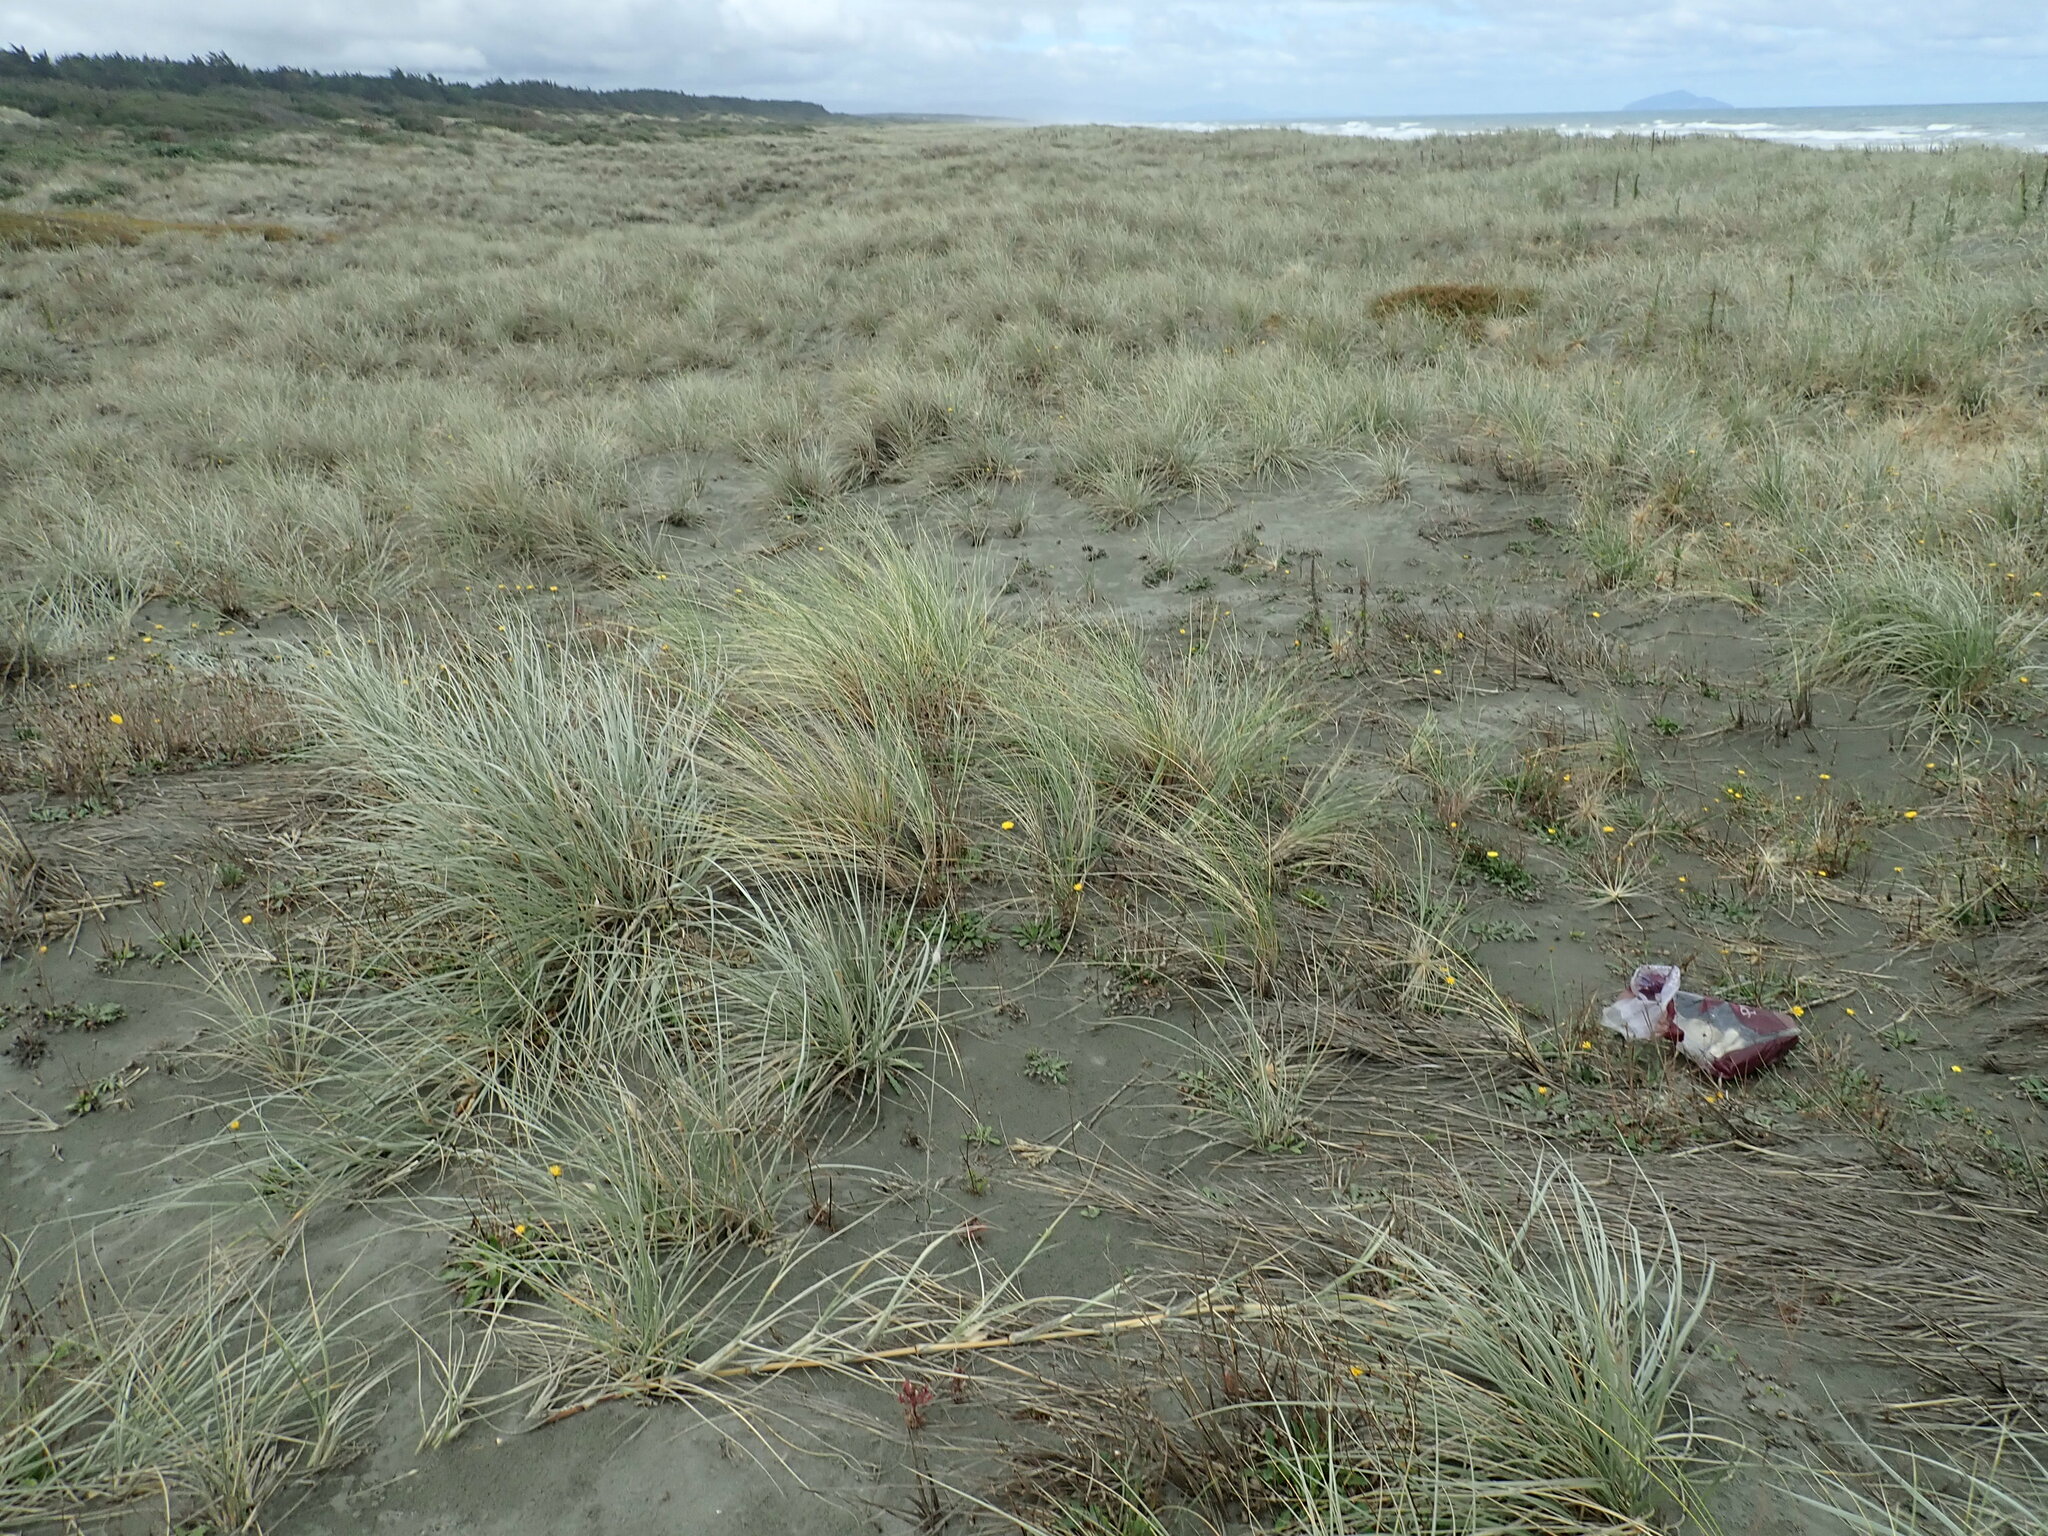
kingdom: Plantae
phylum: Tracheophyta
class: Liliopsida
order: Poales
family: Poaceae
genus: Calamagrostis
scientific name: Calamagrostis arenaria
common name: European beachgrass
